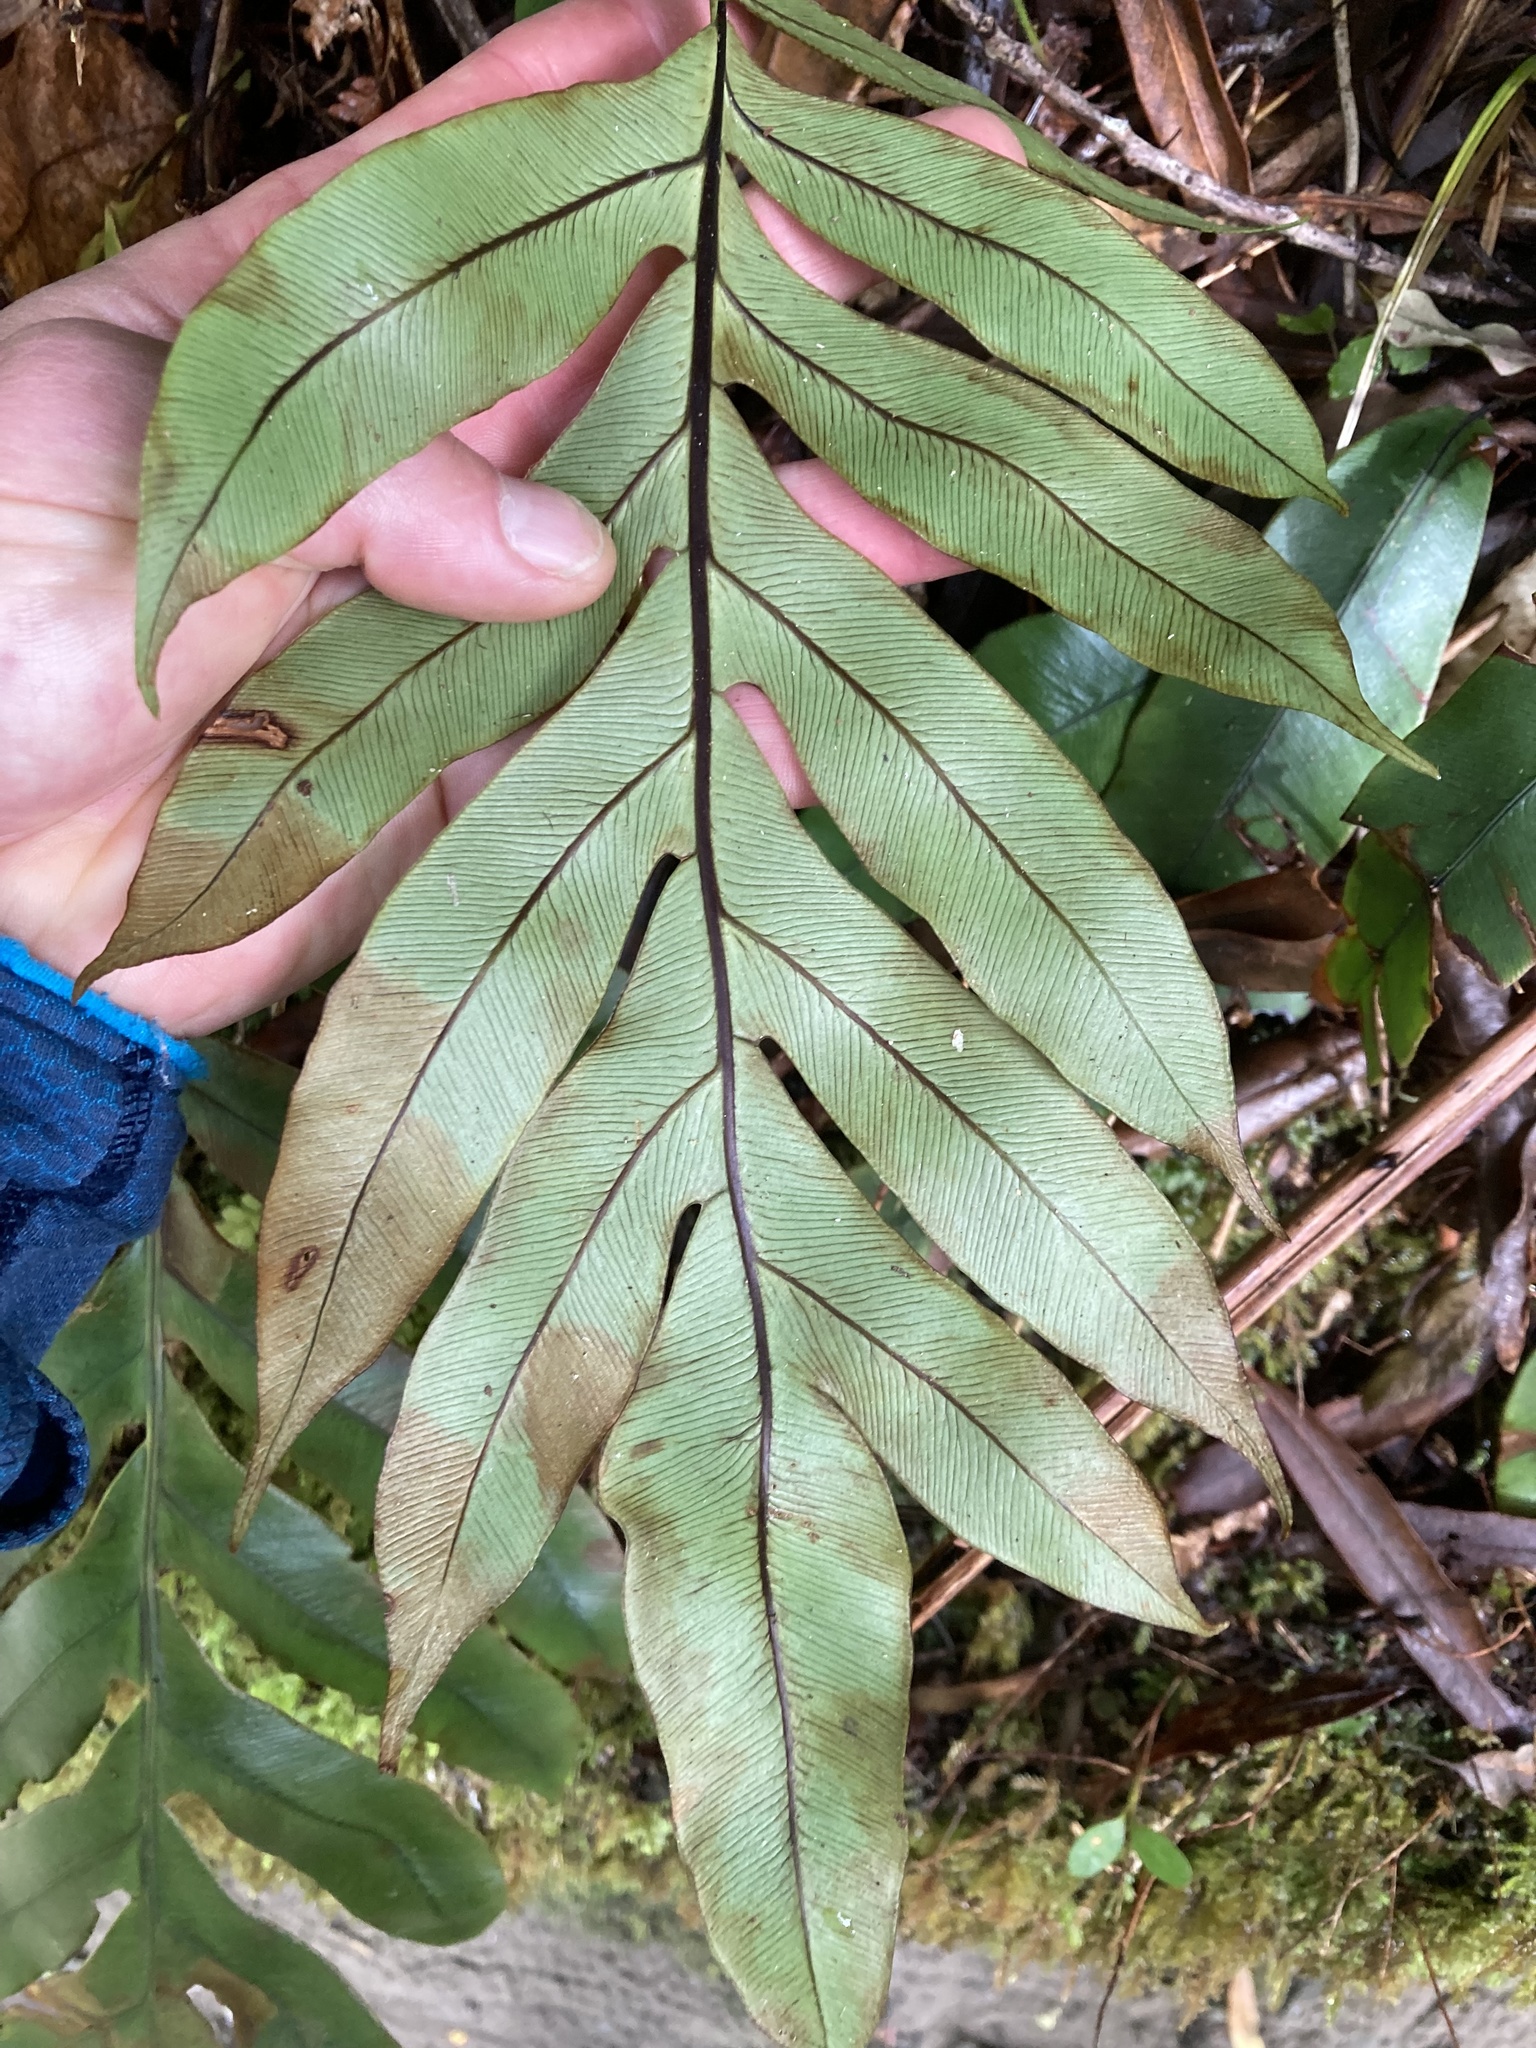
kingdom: Plantae
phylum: Tracheophyta
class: Polypodiopsida
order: Polypodiales
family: Blechnaceae
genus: Austroblechnum
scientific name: Austroblechnum colensoi
